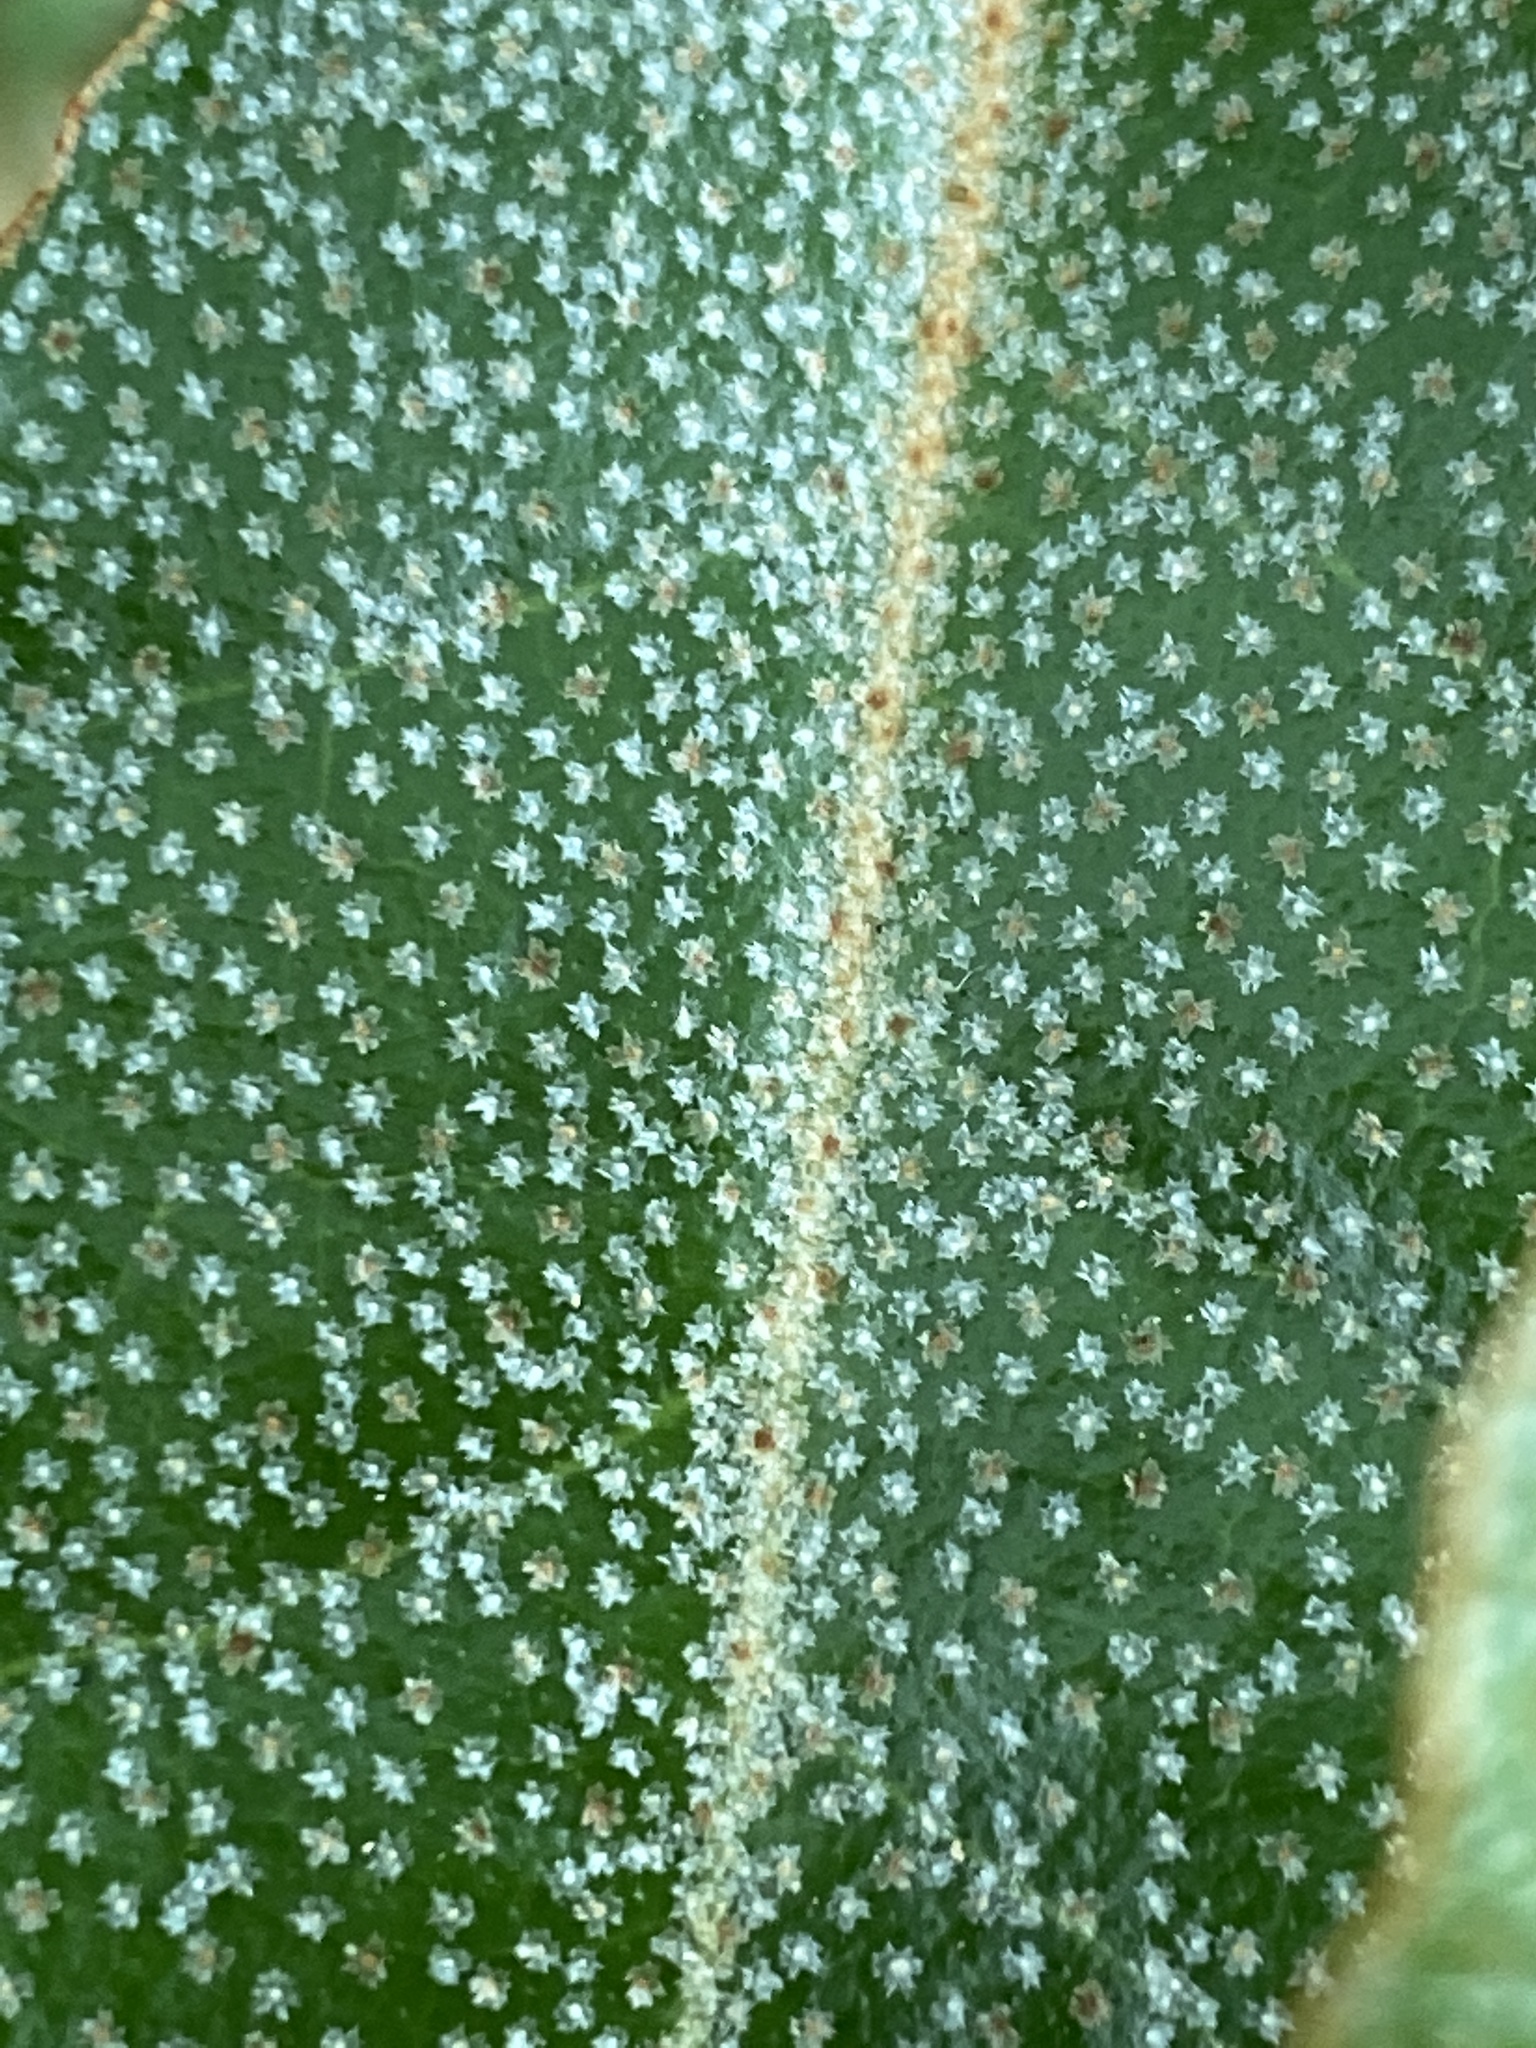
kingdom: Plantae
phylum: Tracheophyta
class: Magnoliopsida
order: Rosales
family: Elaeagnaceae
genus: Elaeagnus
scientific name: Elaeagnus pungens
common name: Spiny oleaster
